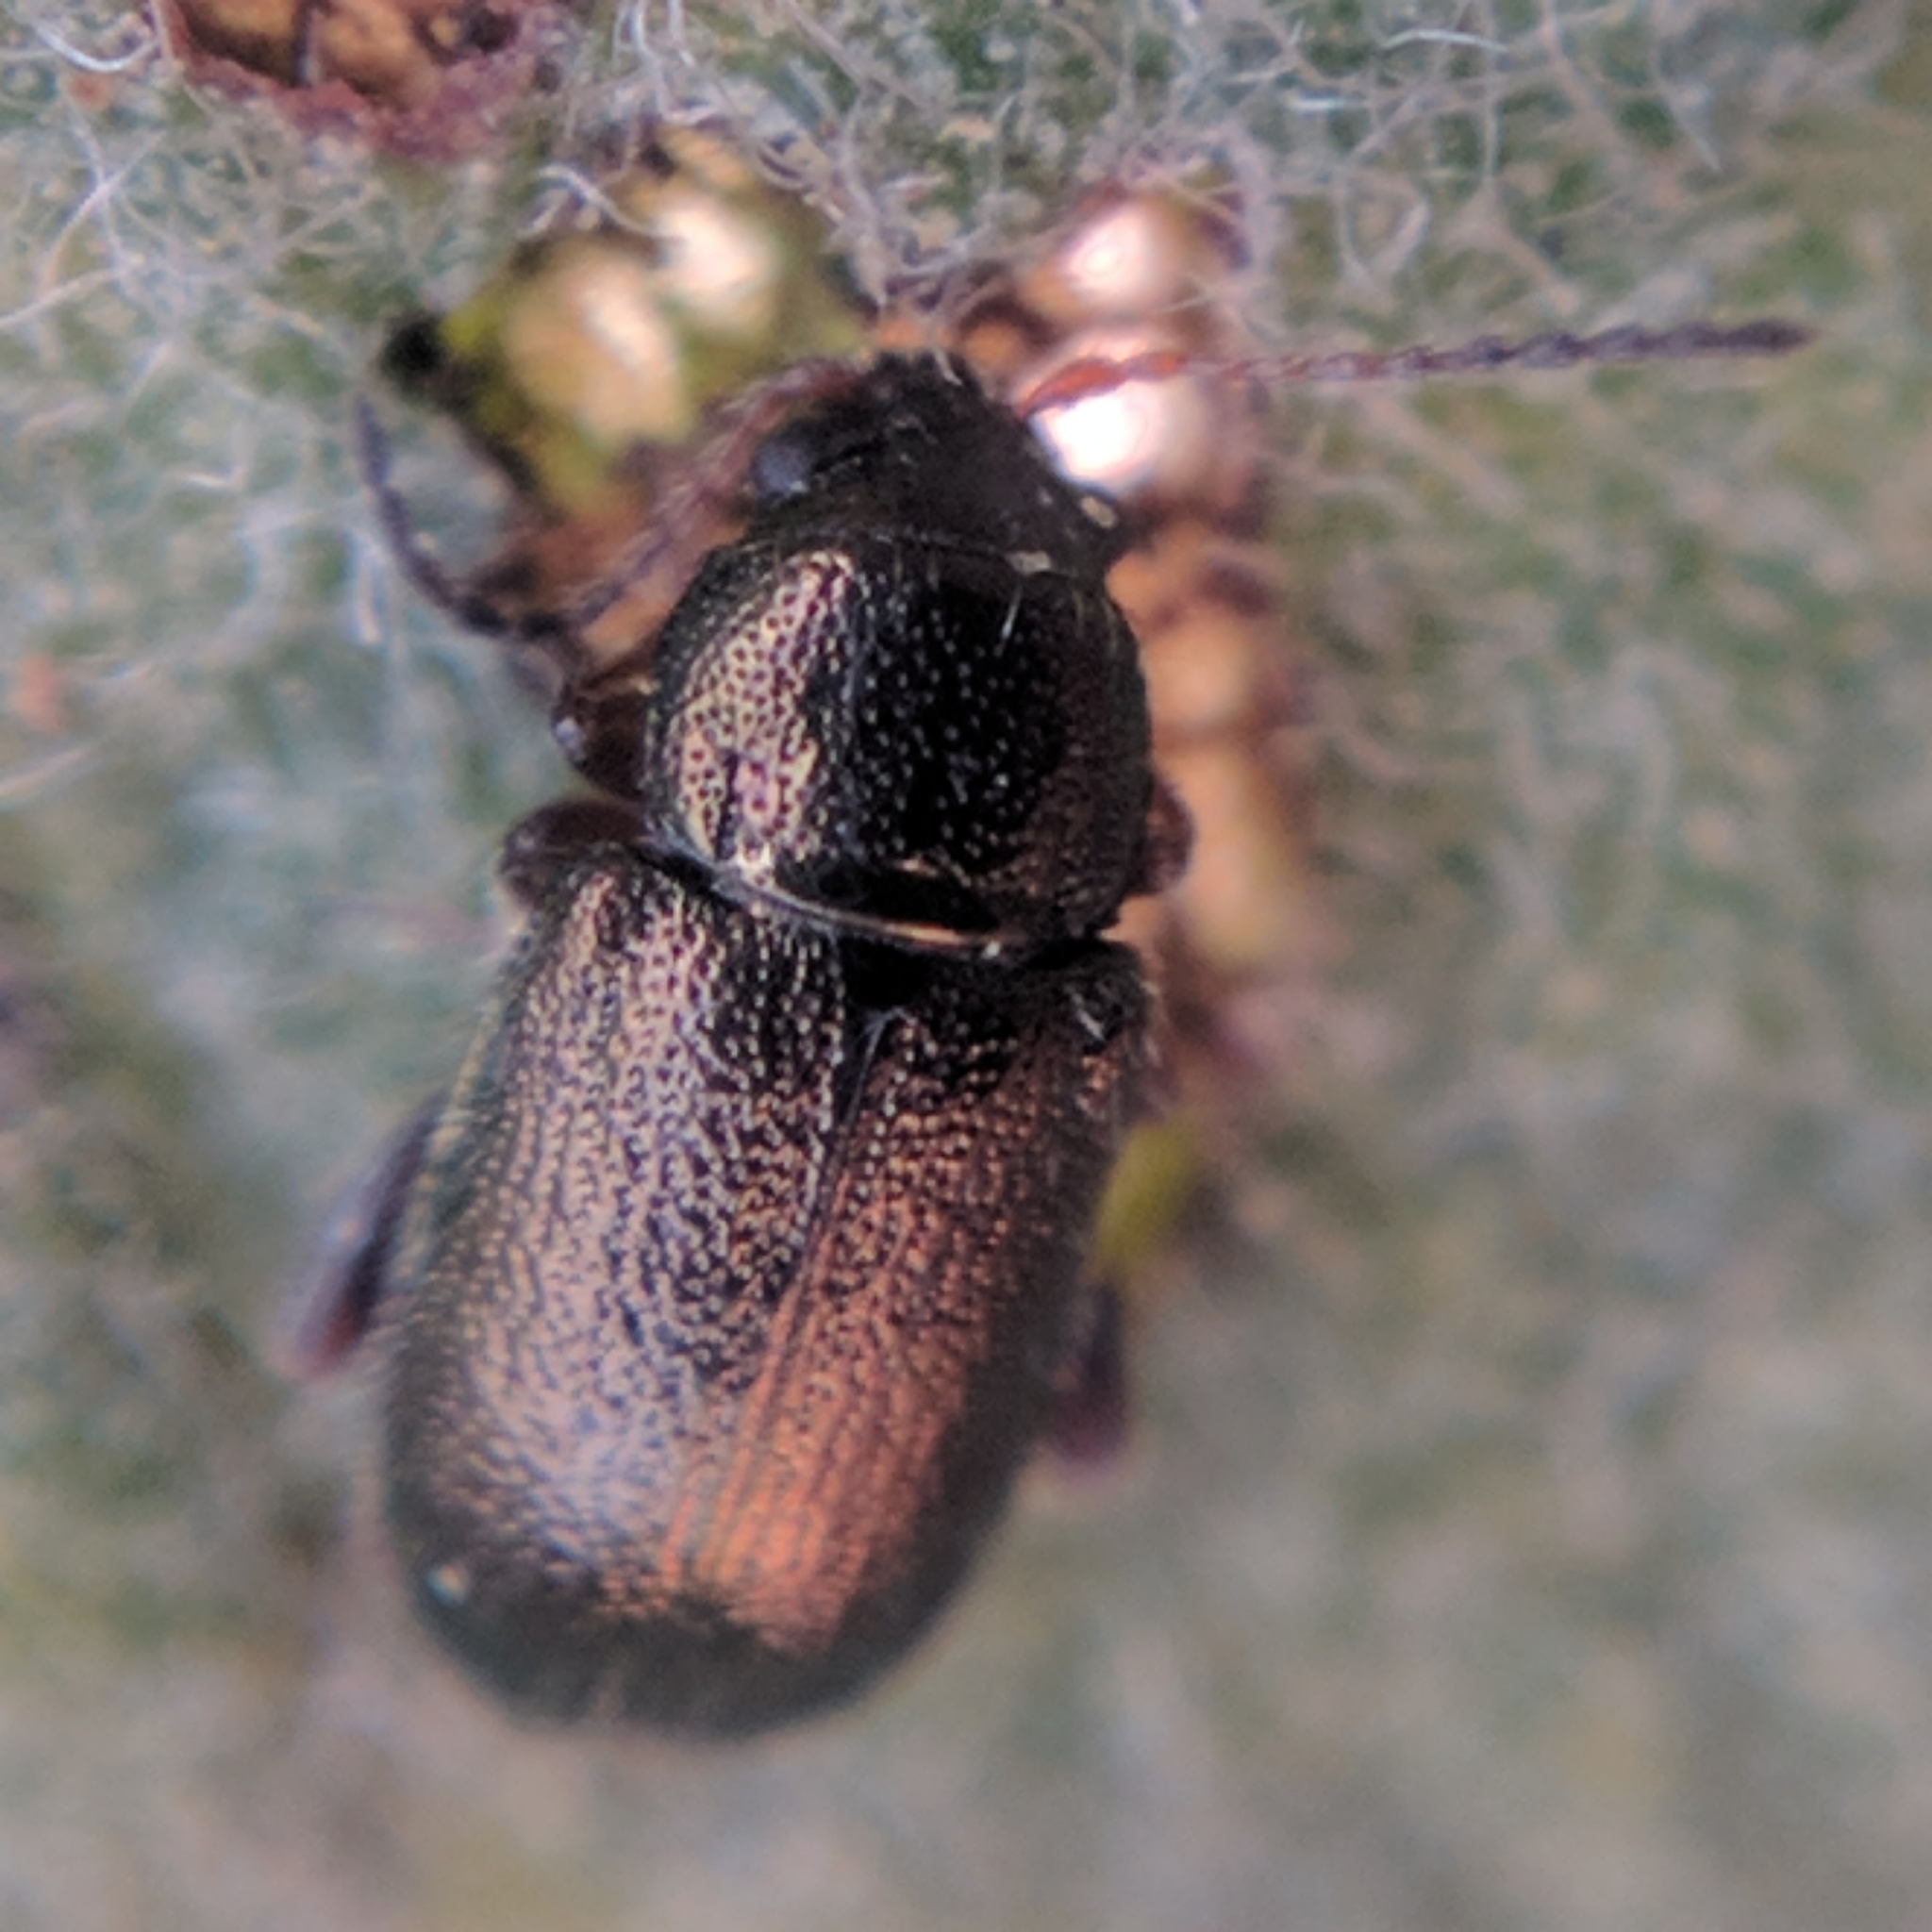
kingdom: Animalia
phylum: Arthropoda
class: Insecta
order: Coleoptera
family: Chrysomelidae
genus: Hemiglyptus
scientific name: Hemiglyptus basalis
